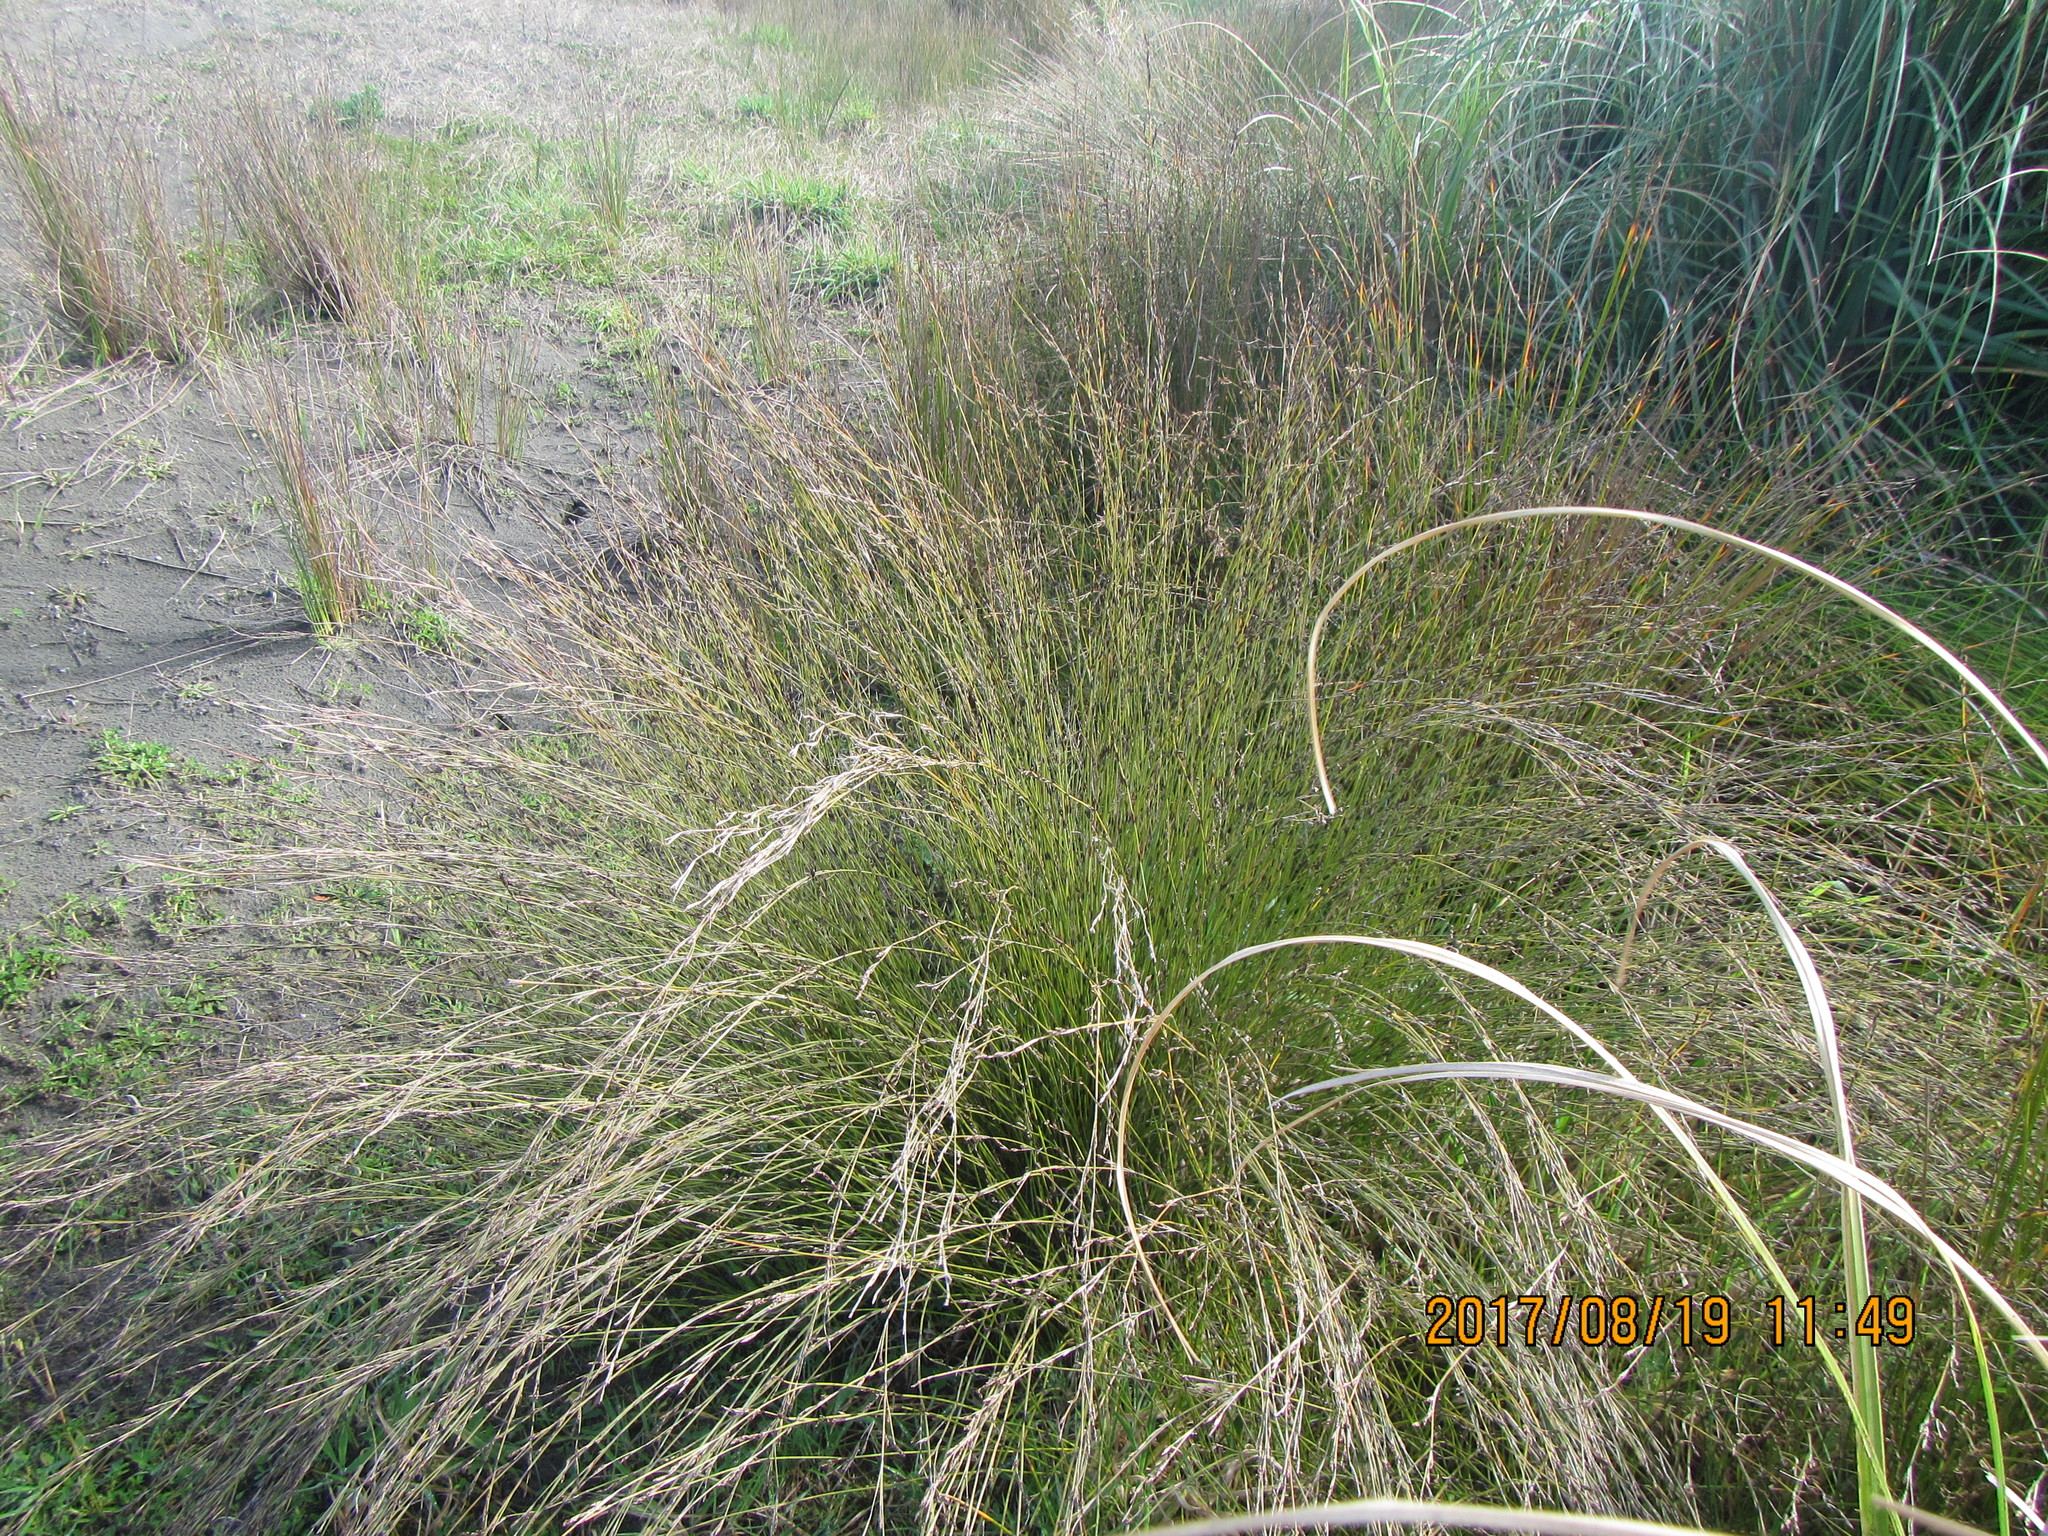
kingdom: Plantae
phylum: Tracheophyta
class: Liliopsida
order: Poales
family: Restionaceae
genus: Apodasmia
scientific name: Apodasmia similis
